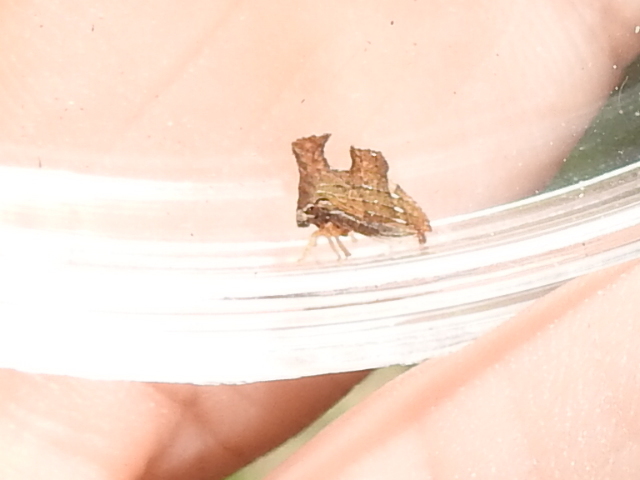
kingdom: Animalia
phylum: Arthropoda
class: Insecta
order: Hemiptera
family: Membracidae
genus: Entylia
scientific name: Entylia carinata
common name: Keeled treehopper
